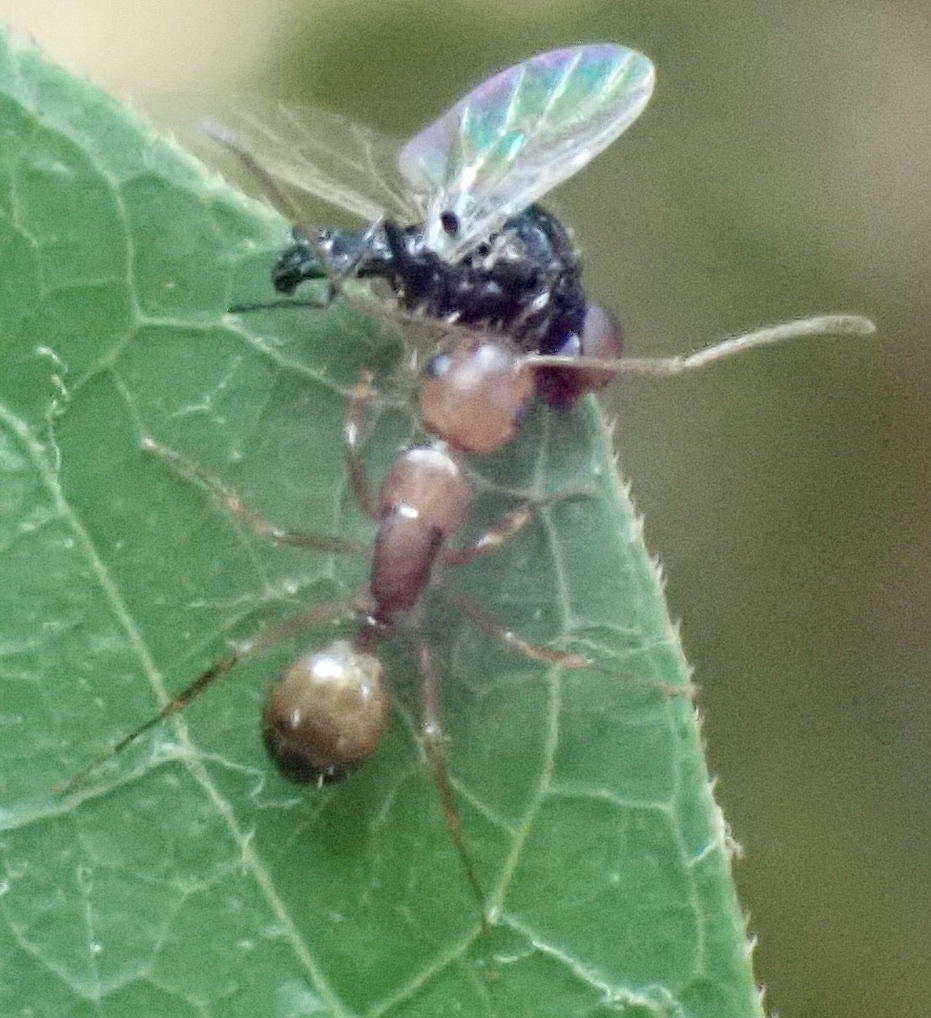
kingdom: Animalia
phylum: Arthropoda
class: Insecta
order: Hymenoptera
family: Formicidae
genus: Camponotus
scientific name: Camponotus snellingi
